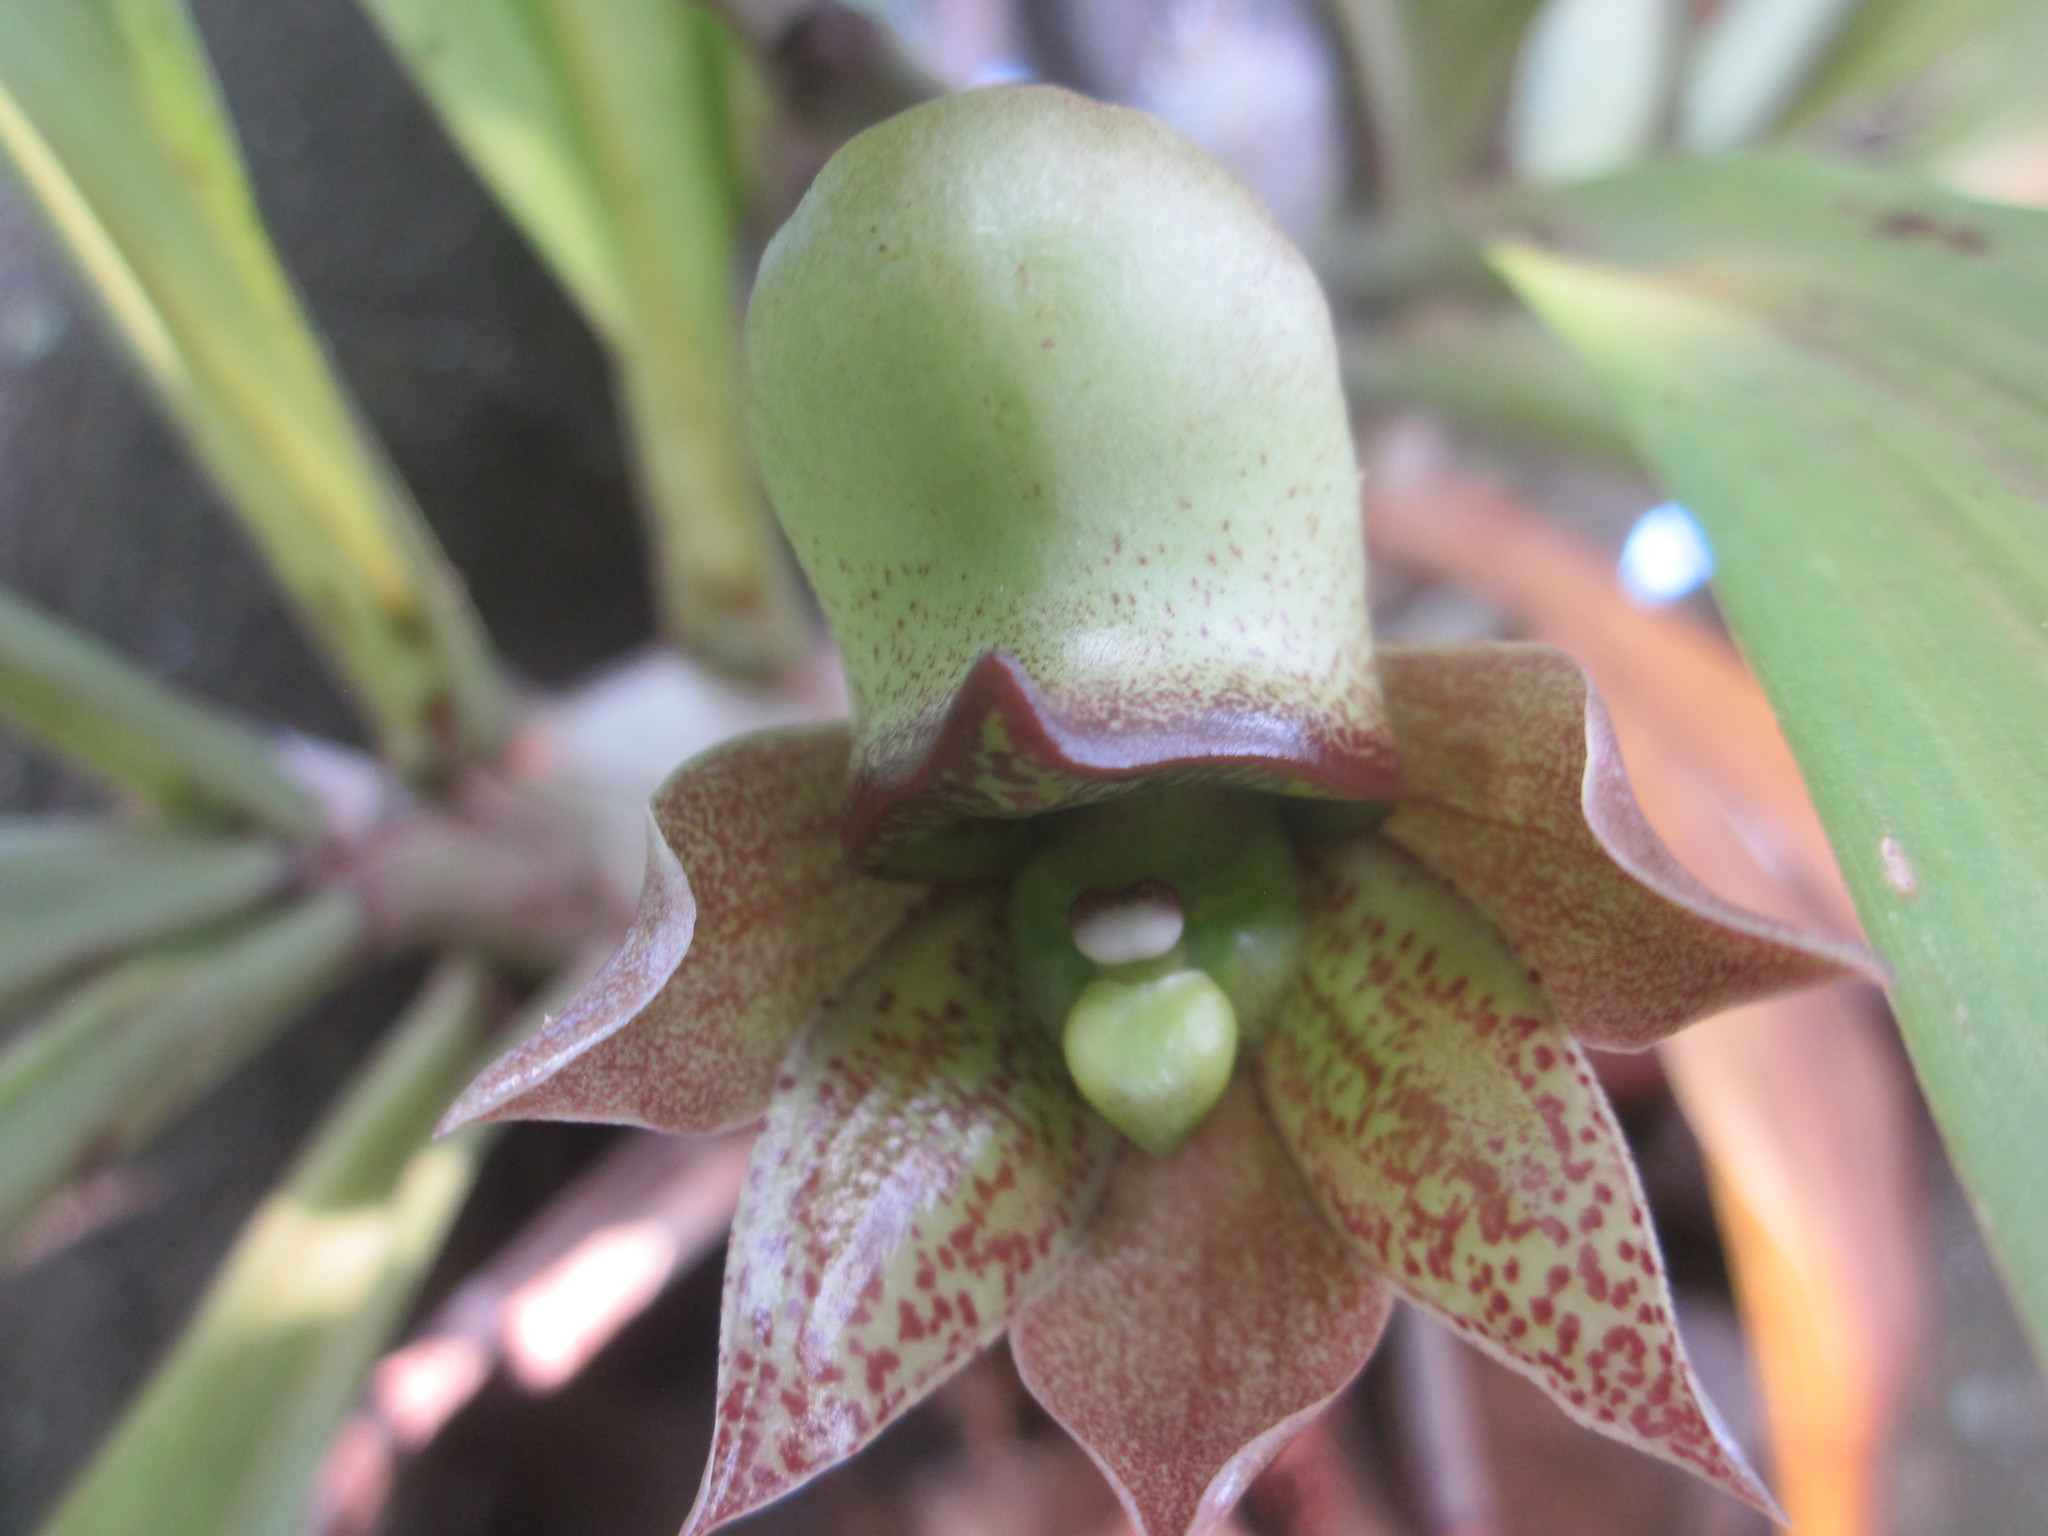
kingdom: Plantae
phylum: Tracheophyta
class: Liliopsida
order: Asparagales
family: Orchidaceae
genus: Catasetum
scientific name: Catasetum laminatum
